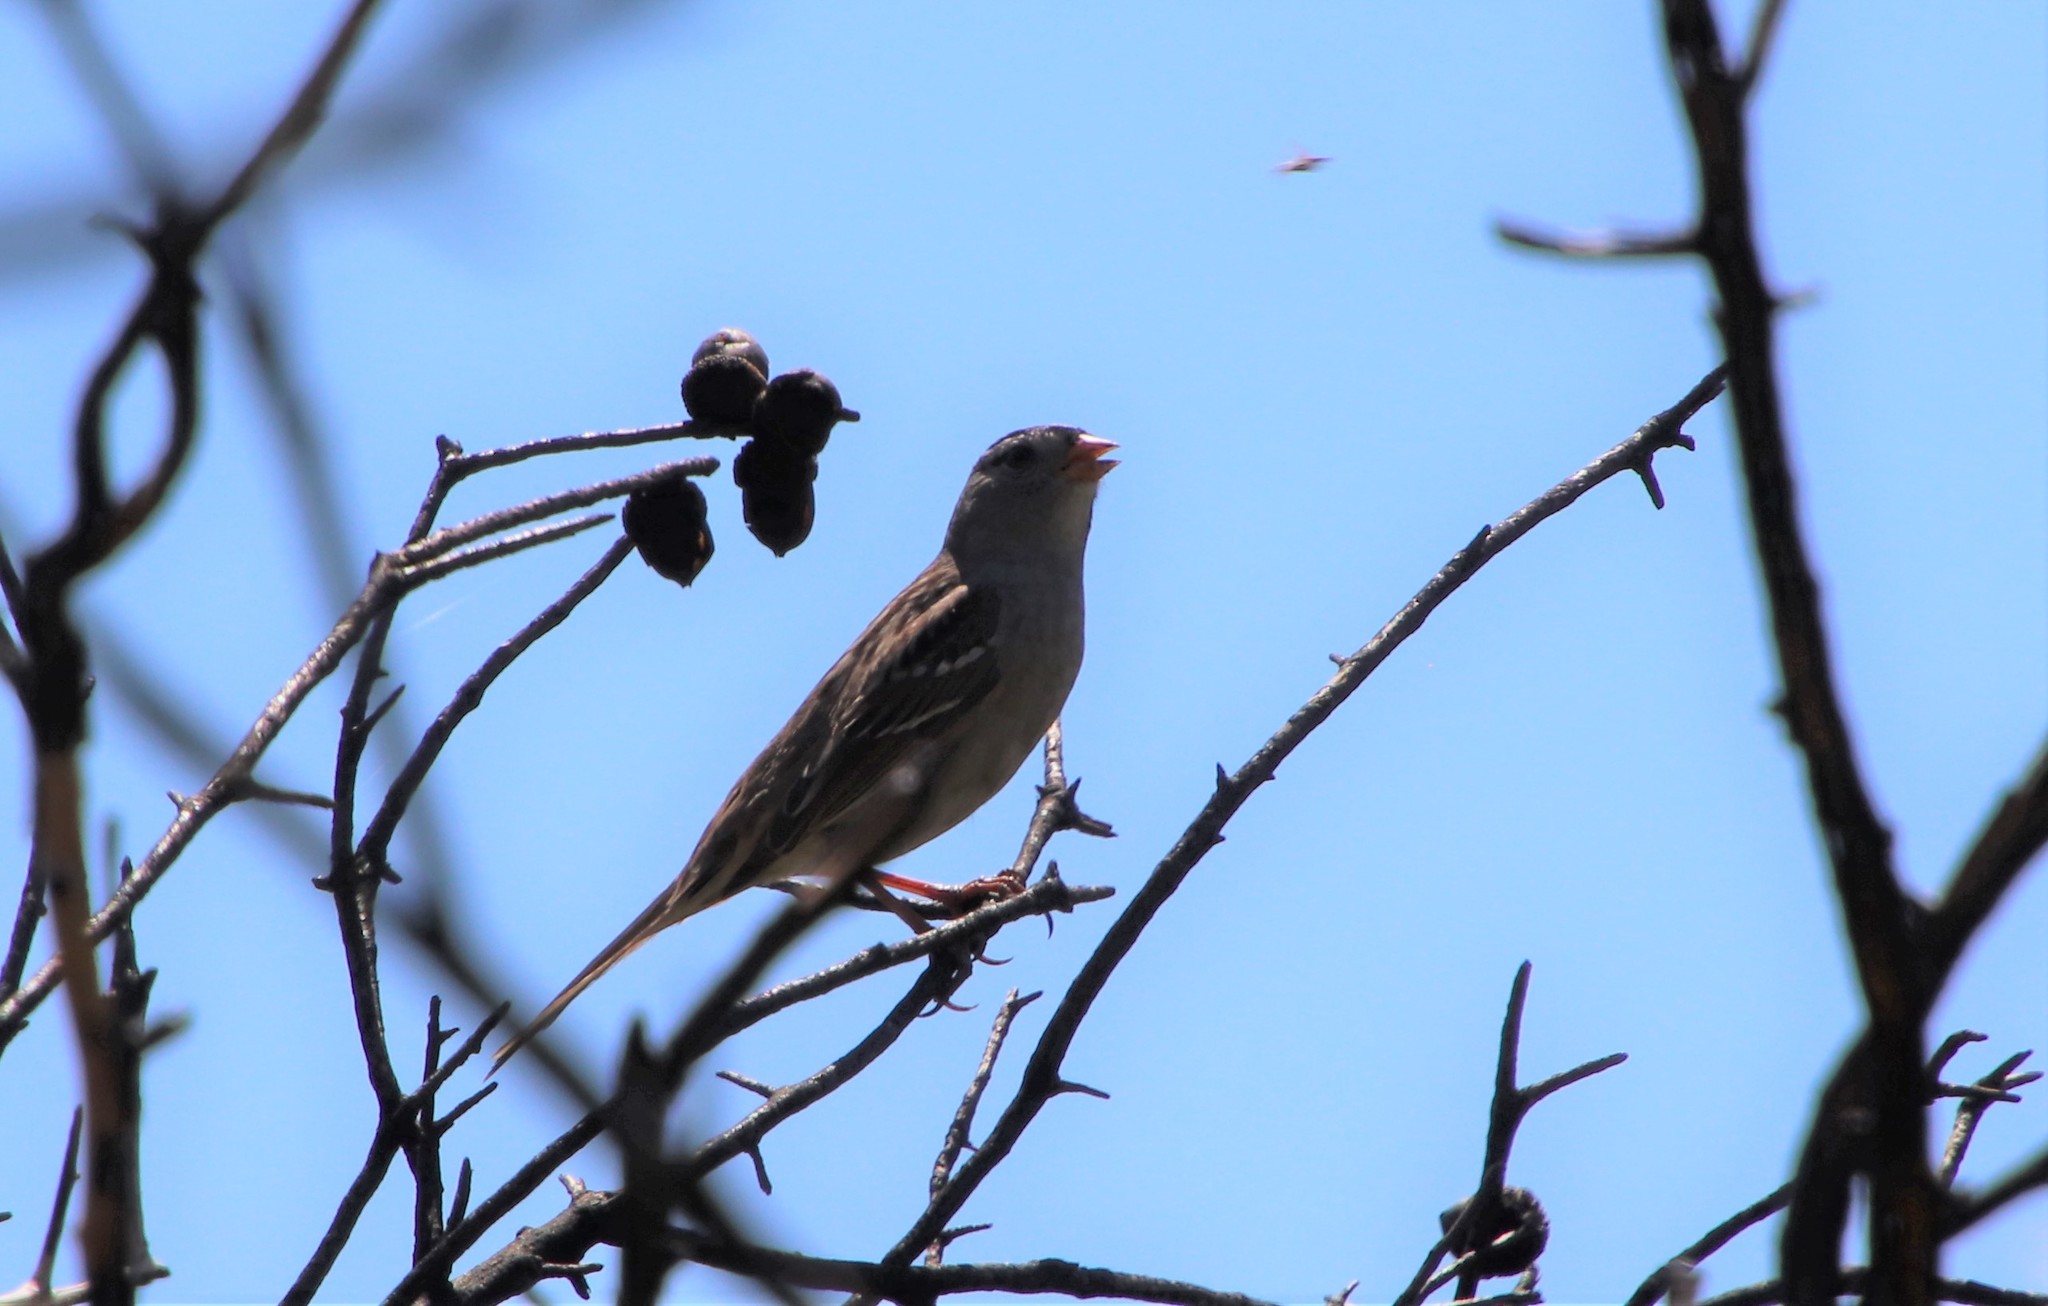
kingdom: Animalia
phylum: Chordata
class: Aves
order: Passeriformes
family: Passerellidae
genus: Zonotrichia
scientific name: Zonotrichia leucophrys
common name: White-crowned sparrow
